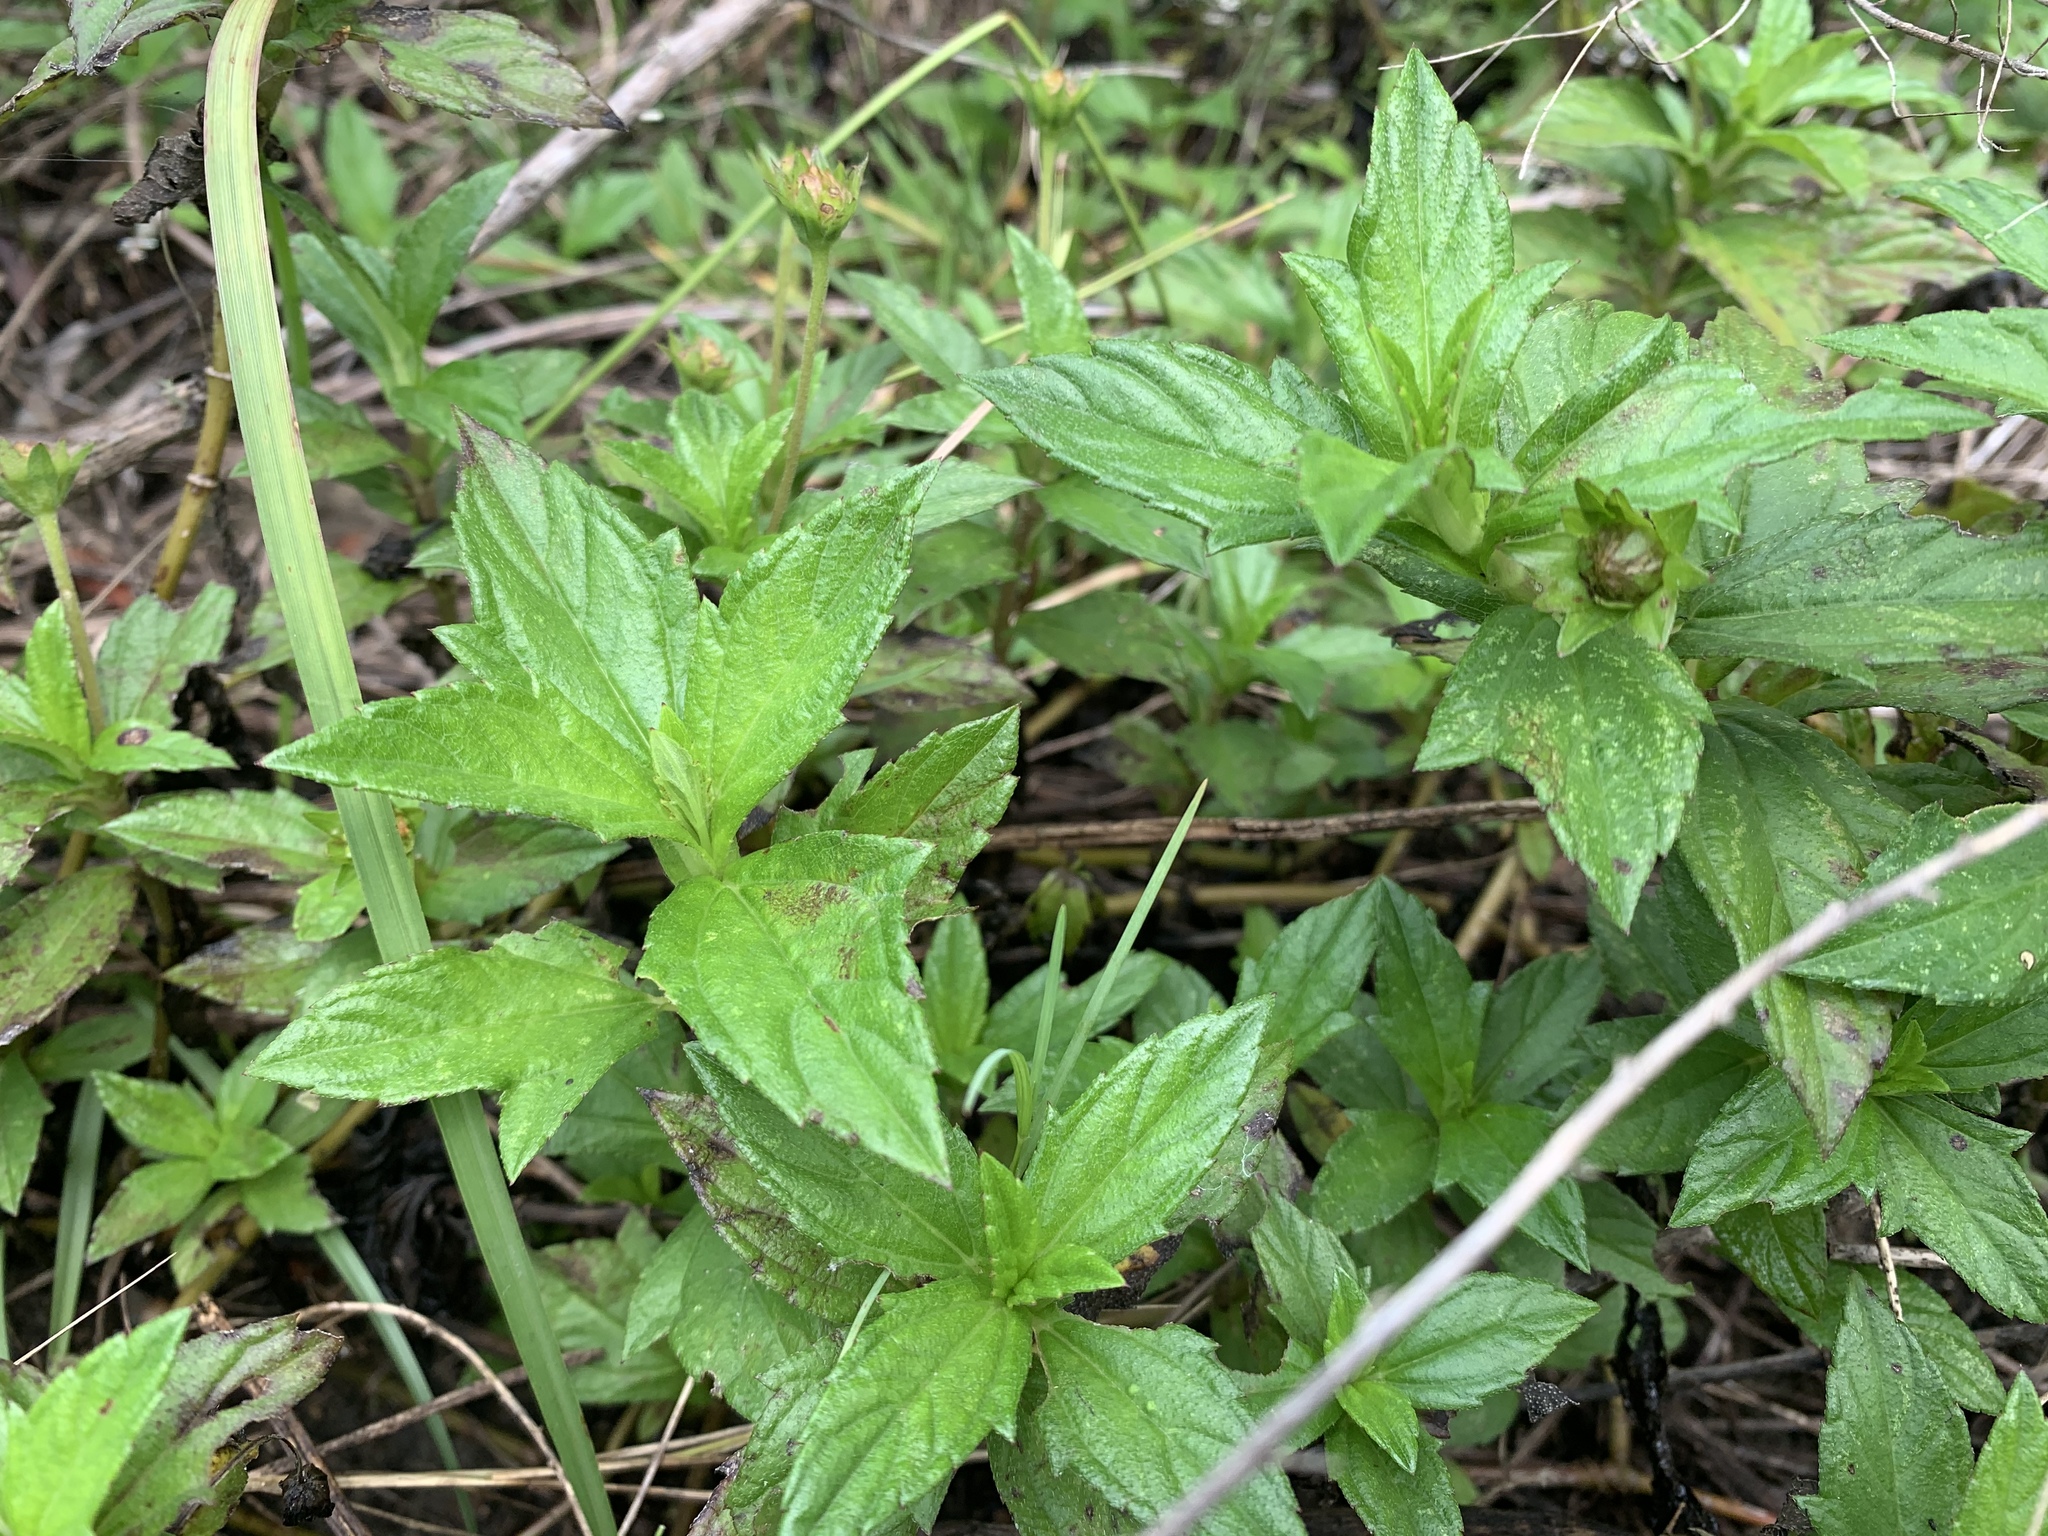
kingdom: Plantae
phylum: Tracheophyta
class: Magnoliopsida
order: Asterales
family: Asteraceae
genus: Sphagneticola
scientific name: Sphagneticola trilobata
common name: Bay biscayne creeping-oxeye
